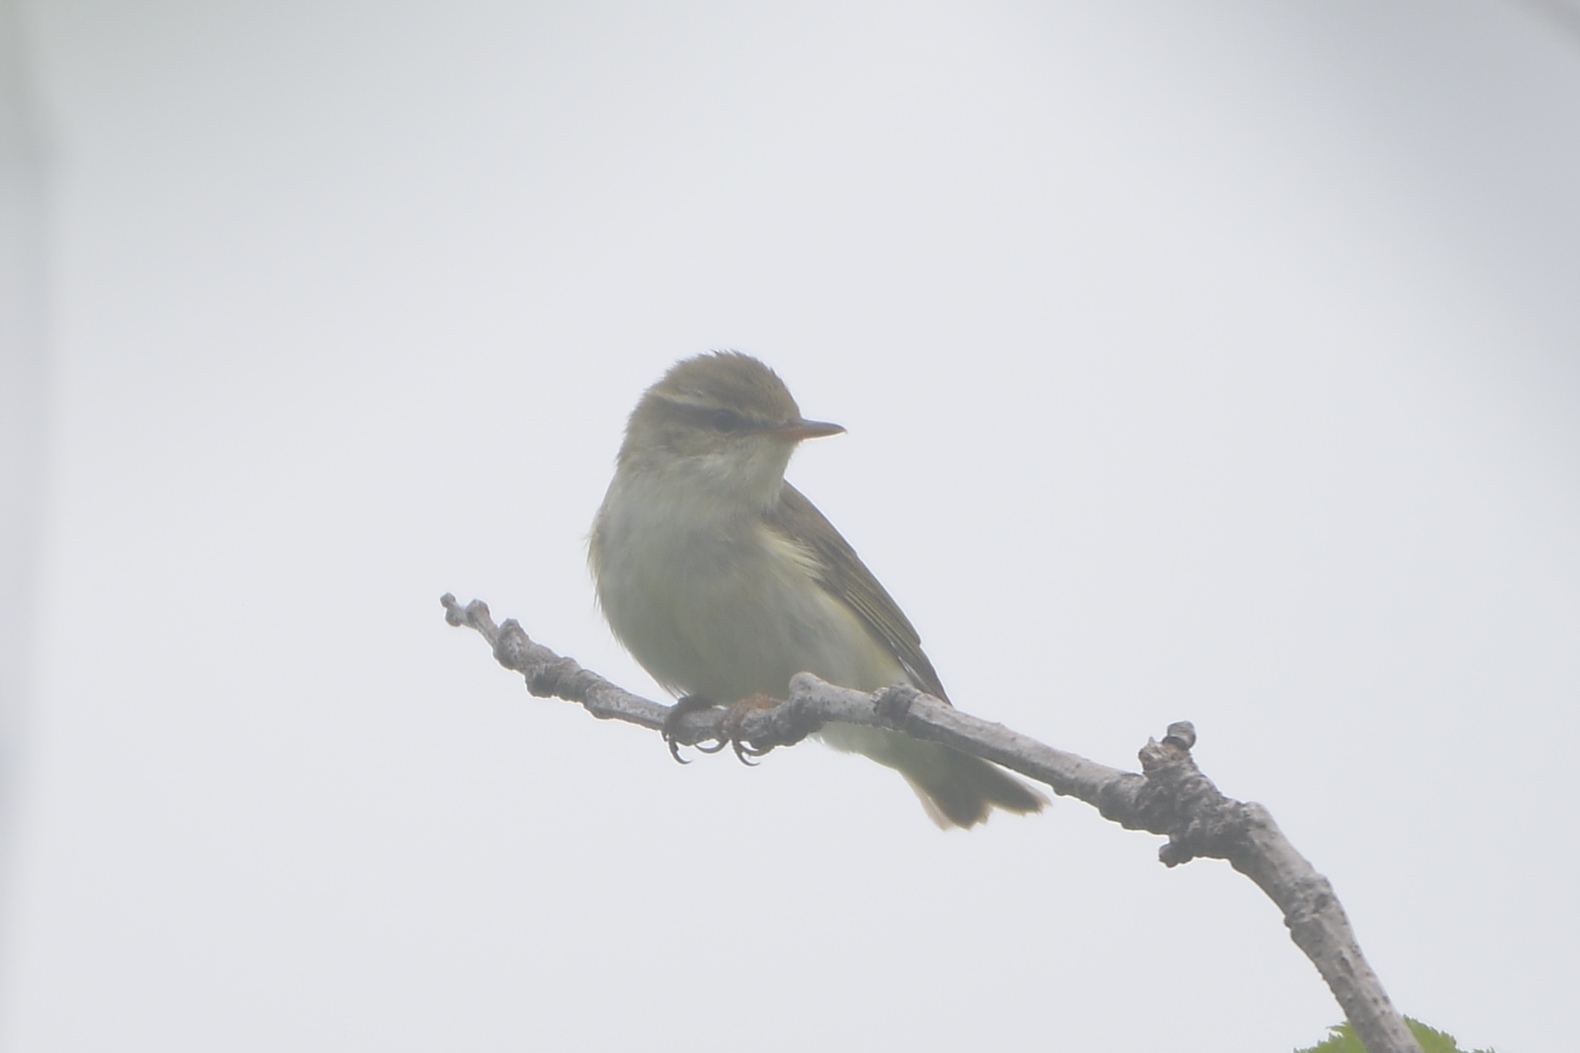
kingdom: Animalia
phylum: Chordata
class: Aves
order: Passeriformes
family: Phylloscopidae
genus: Phylloscopus
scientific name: Phylloscopus examinandus
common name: Kamchatka leaf warbler
